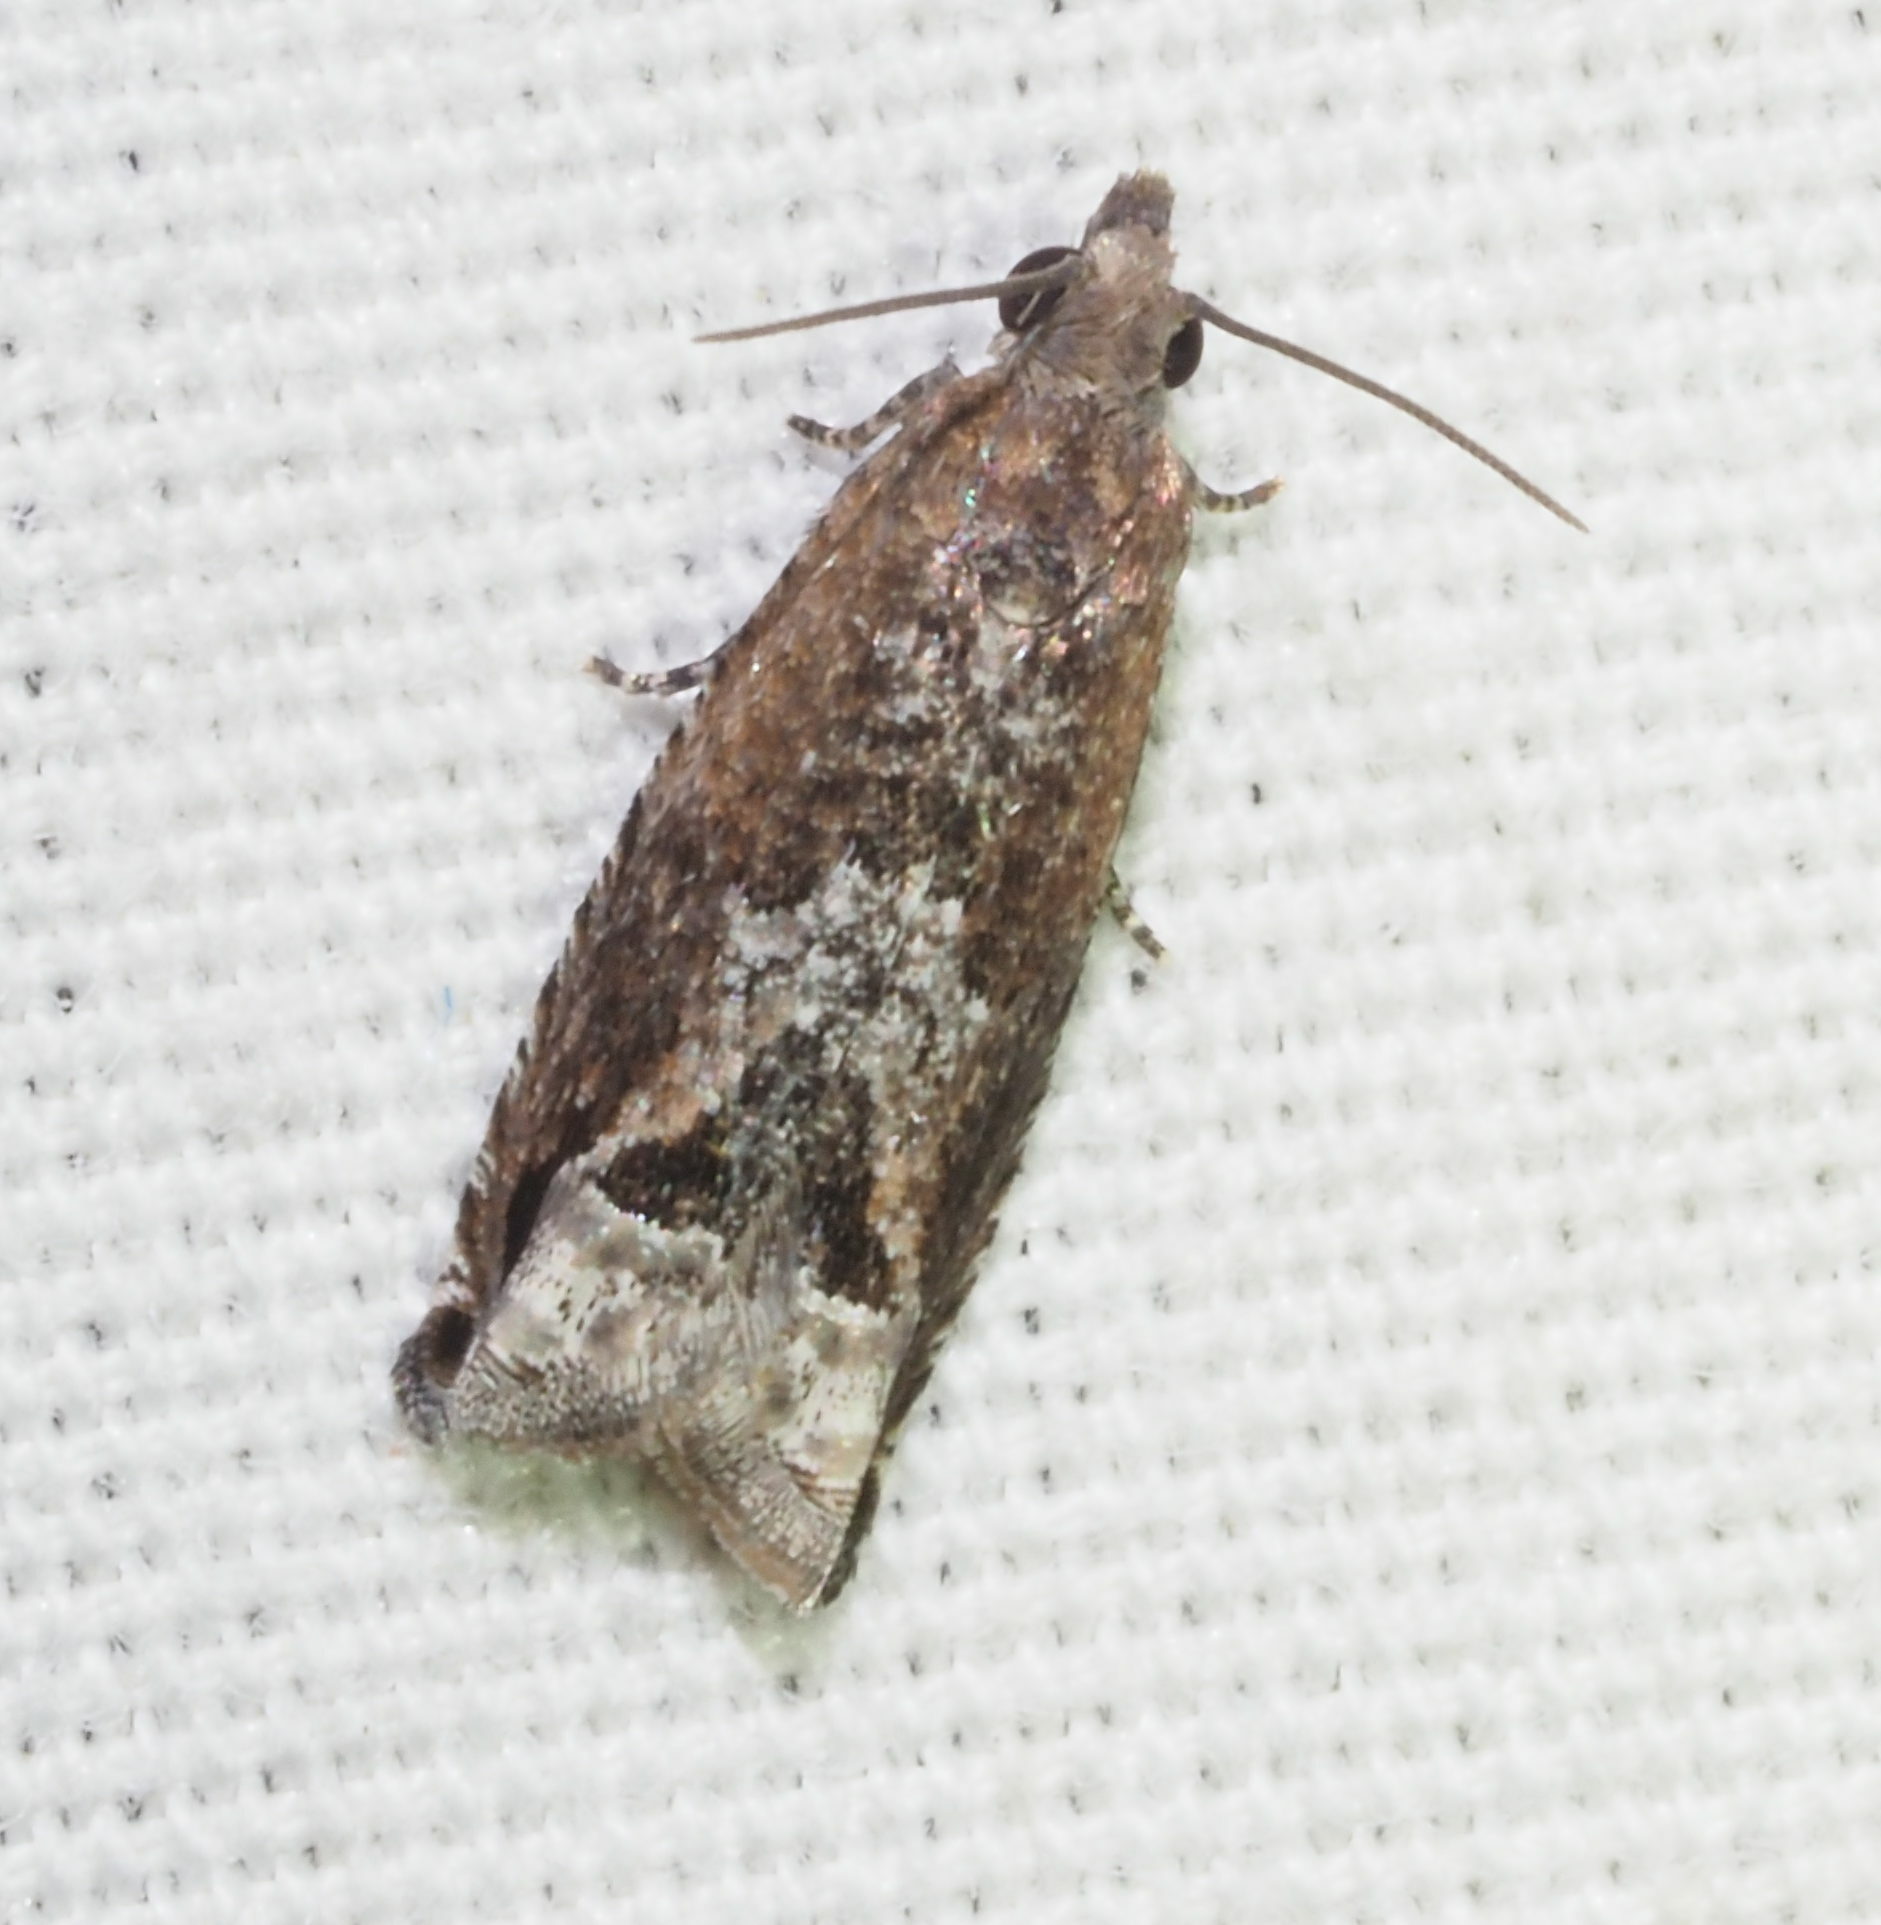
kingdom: Animalia
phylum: Arthropoda
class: Insecta
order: Lepidoptera
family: Tortricidae
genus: Crocidosema
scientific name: Crocidosema lantana
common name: Lantana flower-cluster moth
